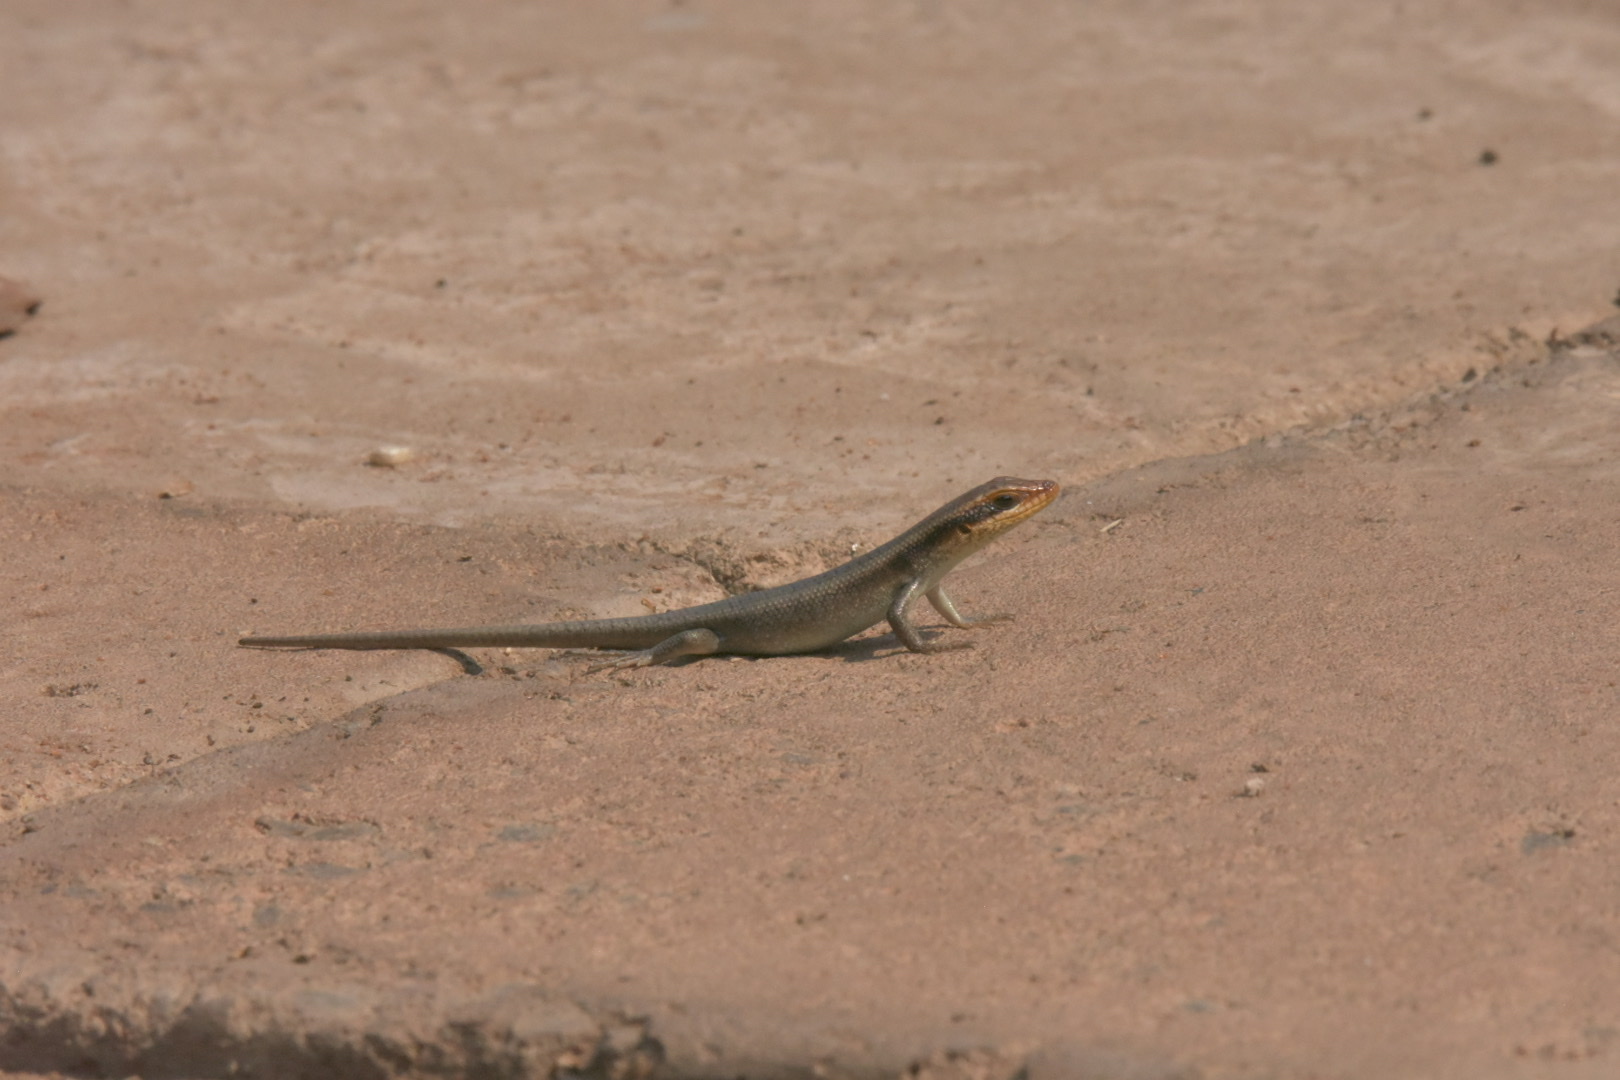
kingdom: Animalia
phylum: Chordata
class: Squamata
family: Scincidae
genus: Trachylepis
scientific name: Trachylepis wahlbergii
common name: Wahlberg’s striped skink
